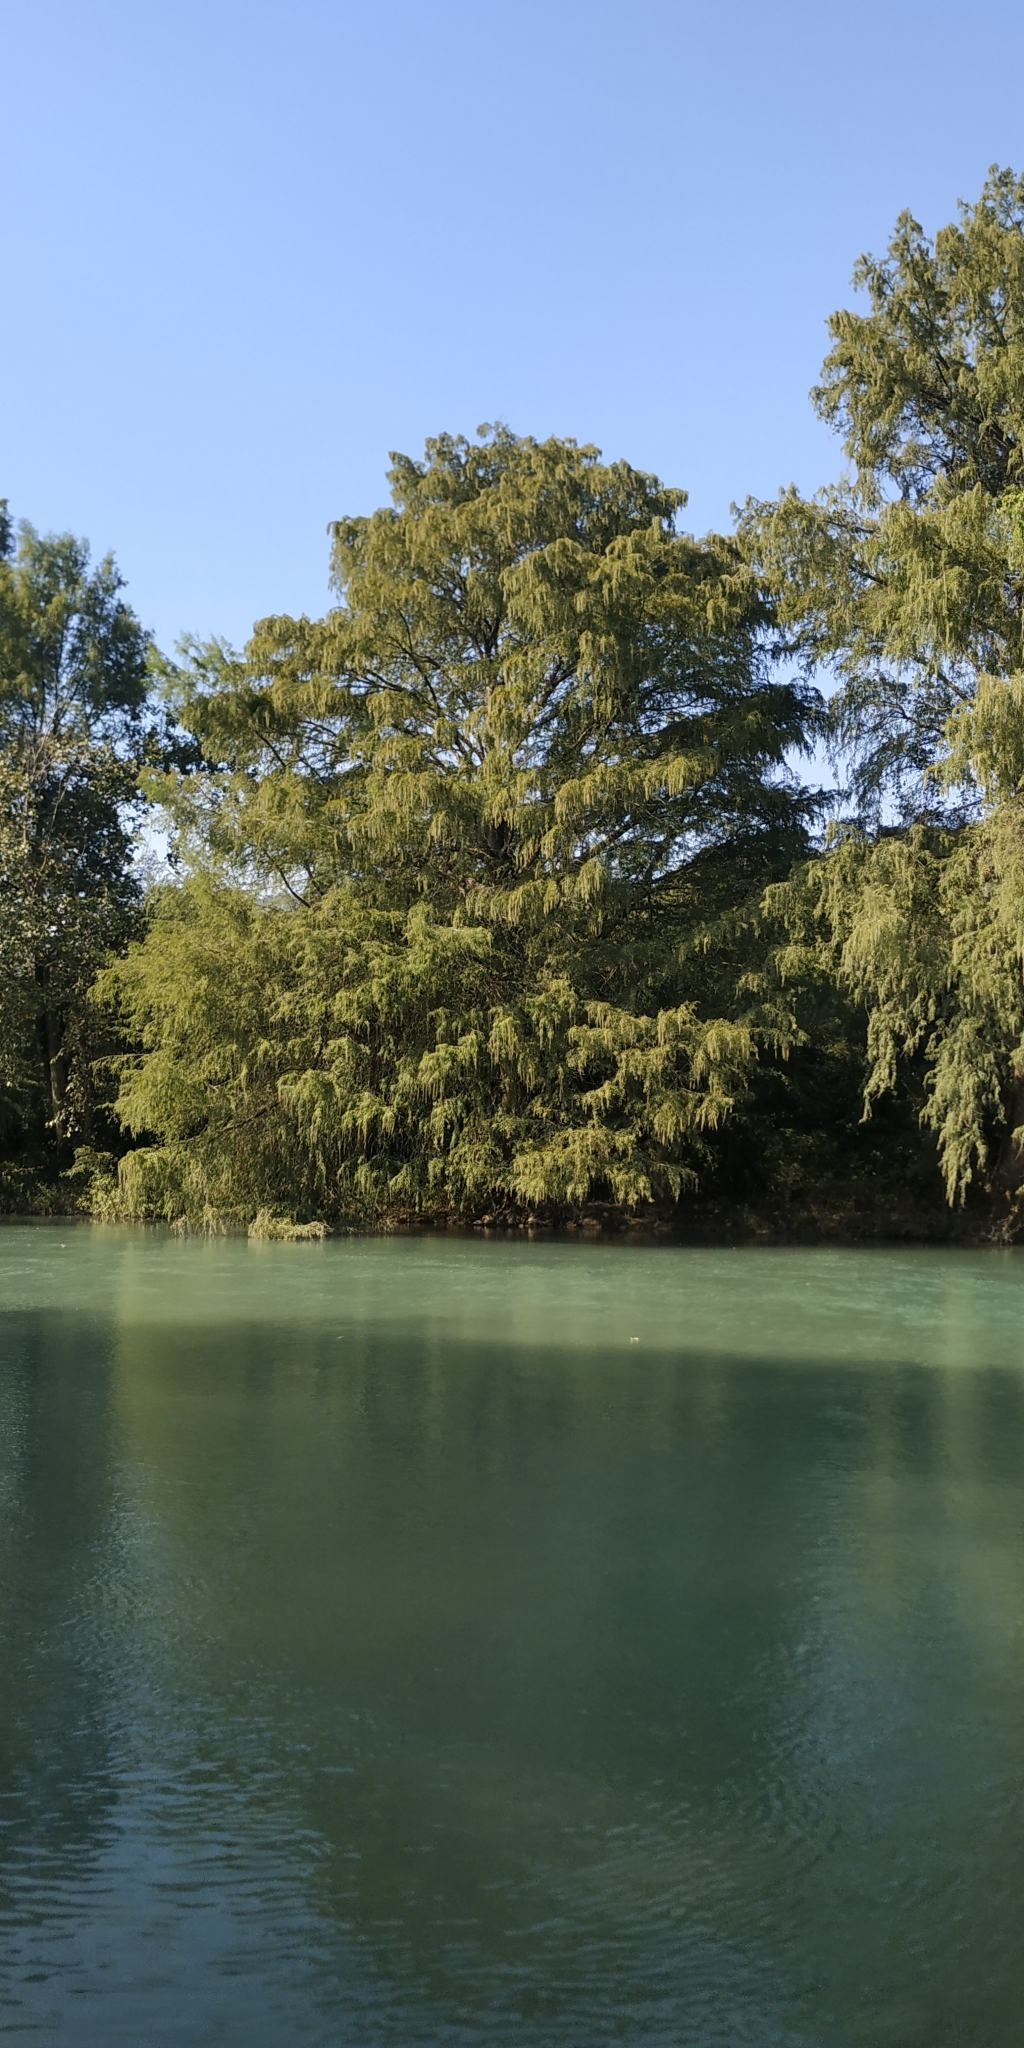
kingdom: Plantae
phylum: Tracheophyta
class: Pinopsida
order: Pinales
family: Cupressaceae
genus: Taxodium
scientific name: Taxodium mucronatum
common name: Montezume bald cypress
